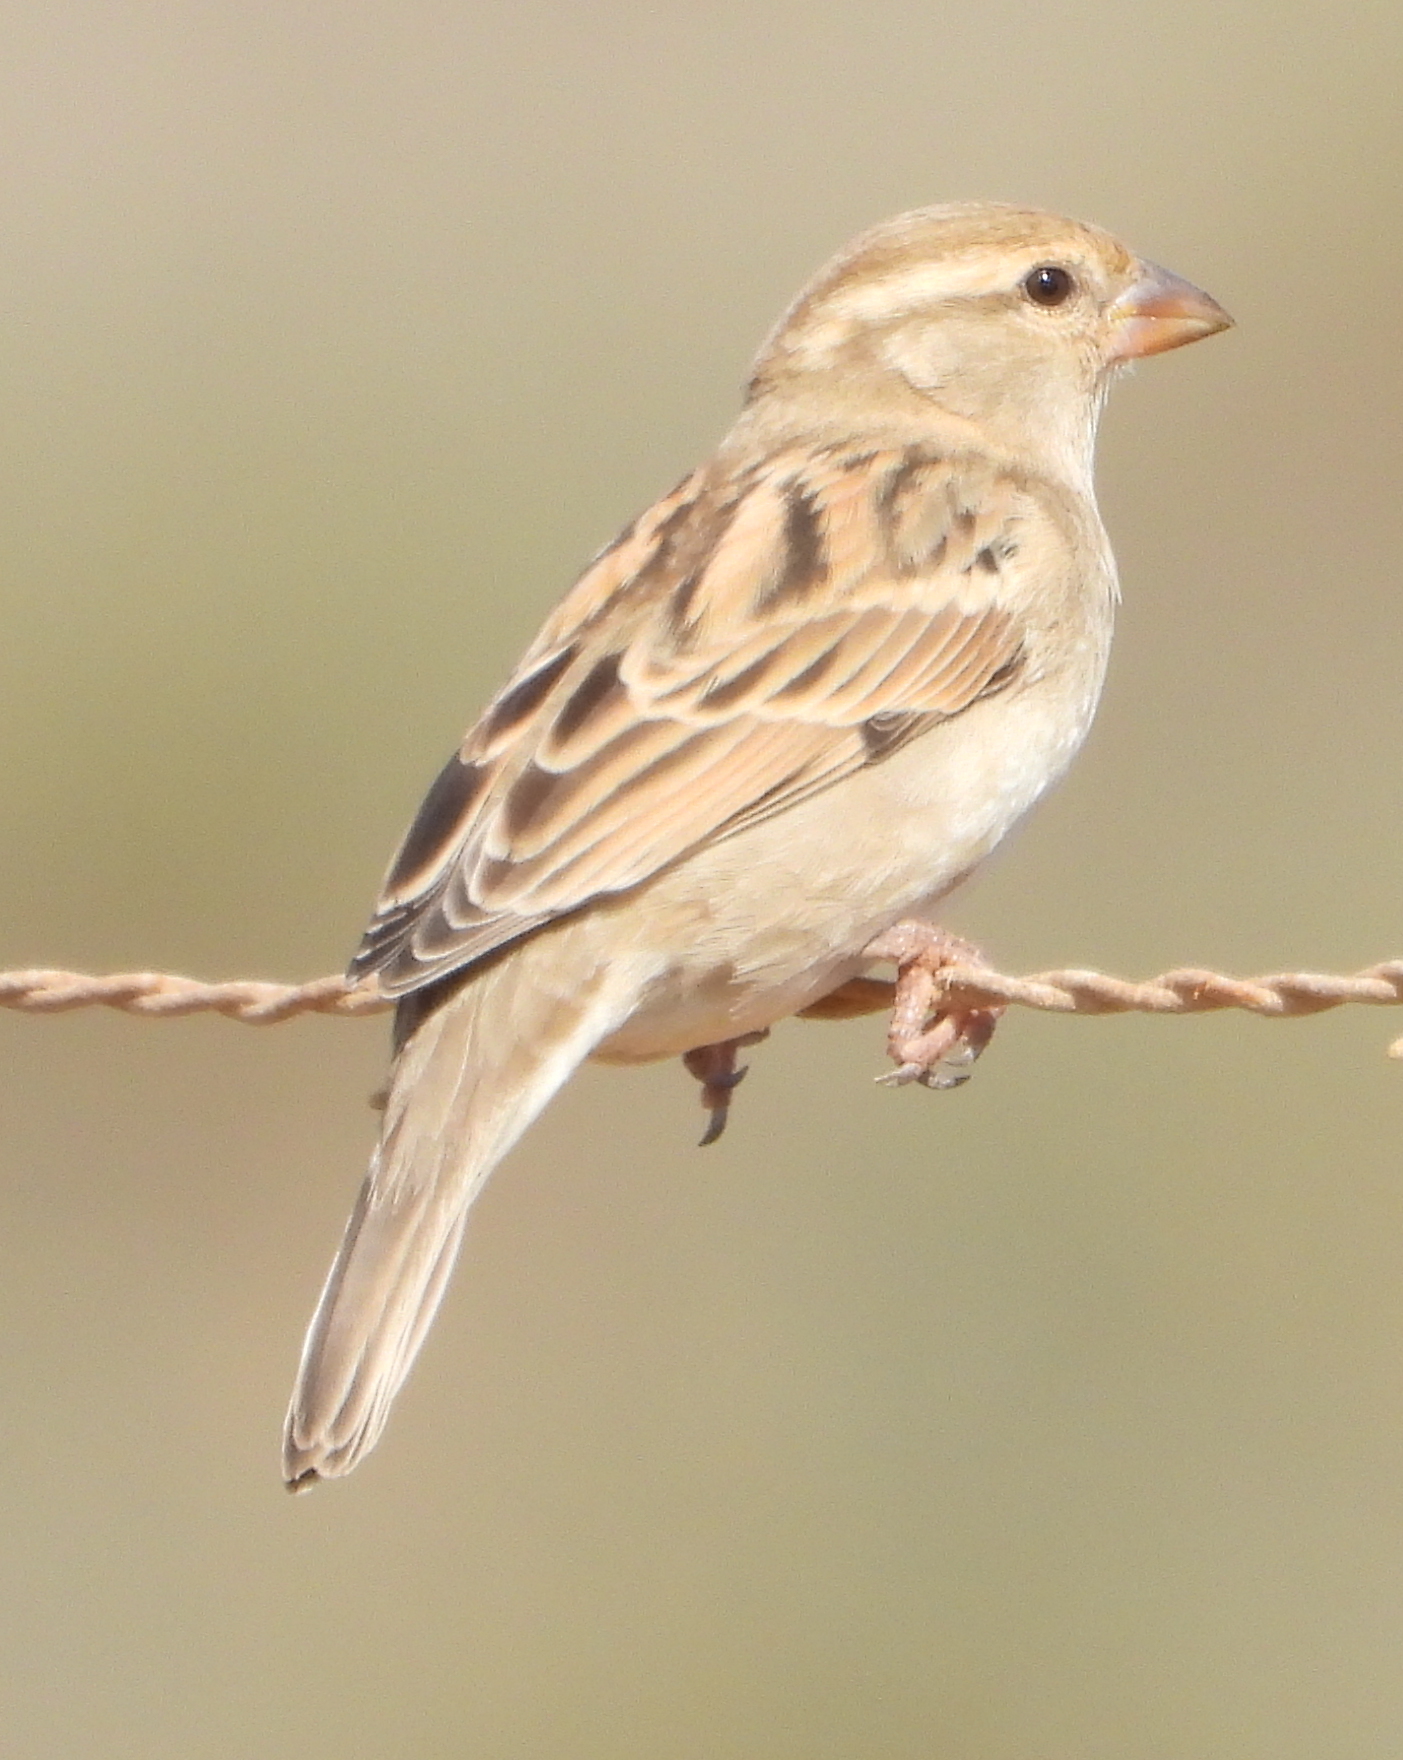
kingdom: Animalia
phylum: Chordata
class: Aves
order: Passeriformes
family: Passeridae
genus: Passer
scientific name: Passer domesticus
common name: House sparrow
